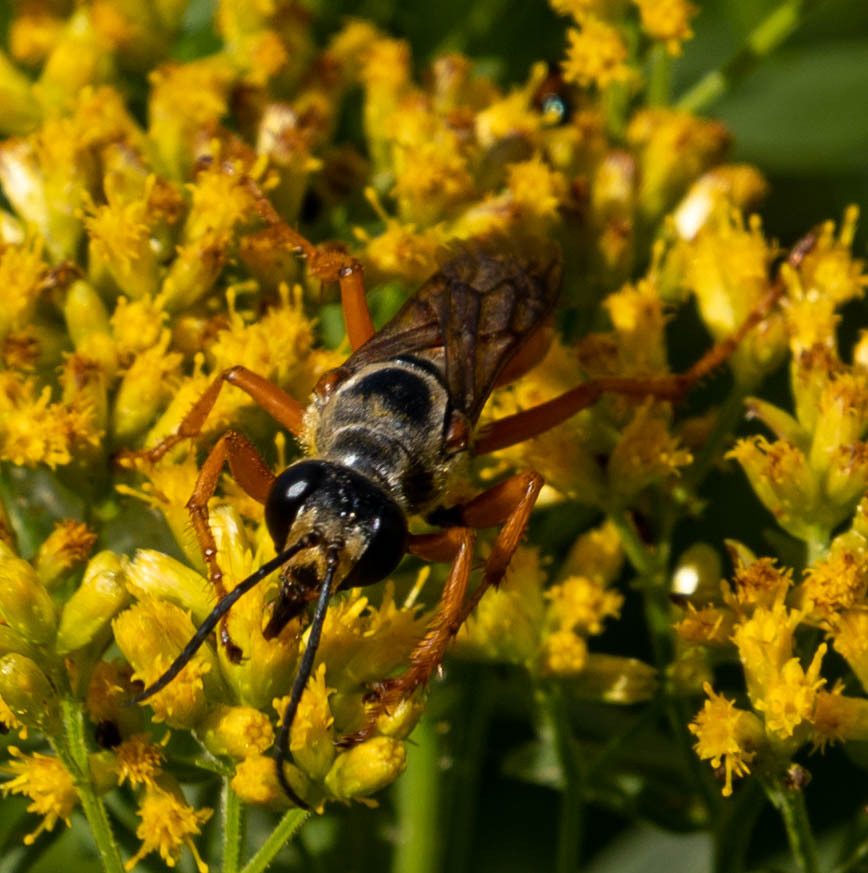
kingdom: Animalia
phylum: Arthropoda
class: Insecta
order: Hymenoptera
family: Sphecidae
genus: Sphex
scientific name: Sphex ichneumoneus
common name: Great golden digger wasp
